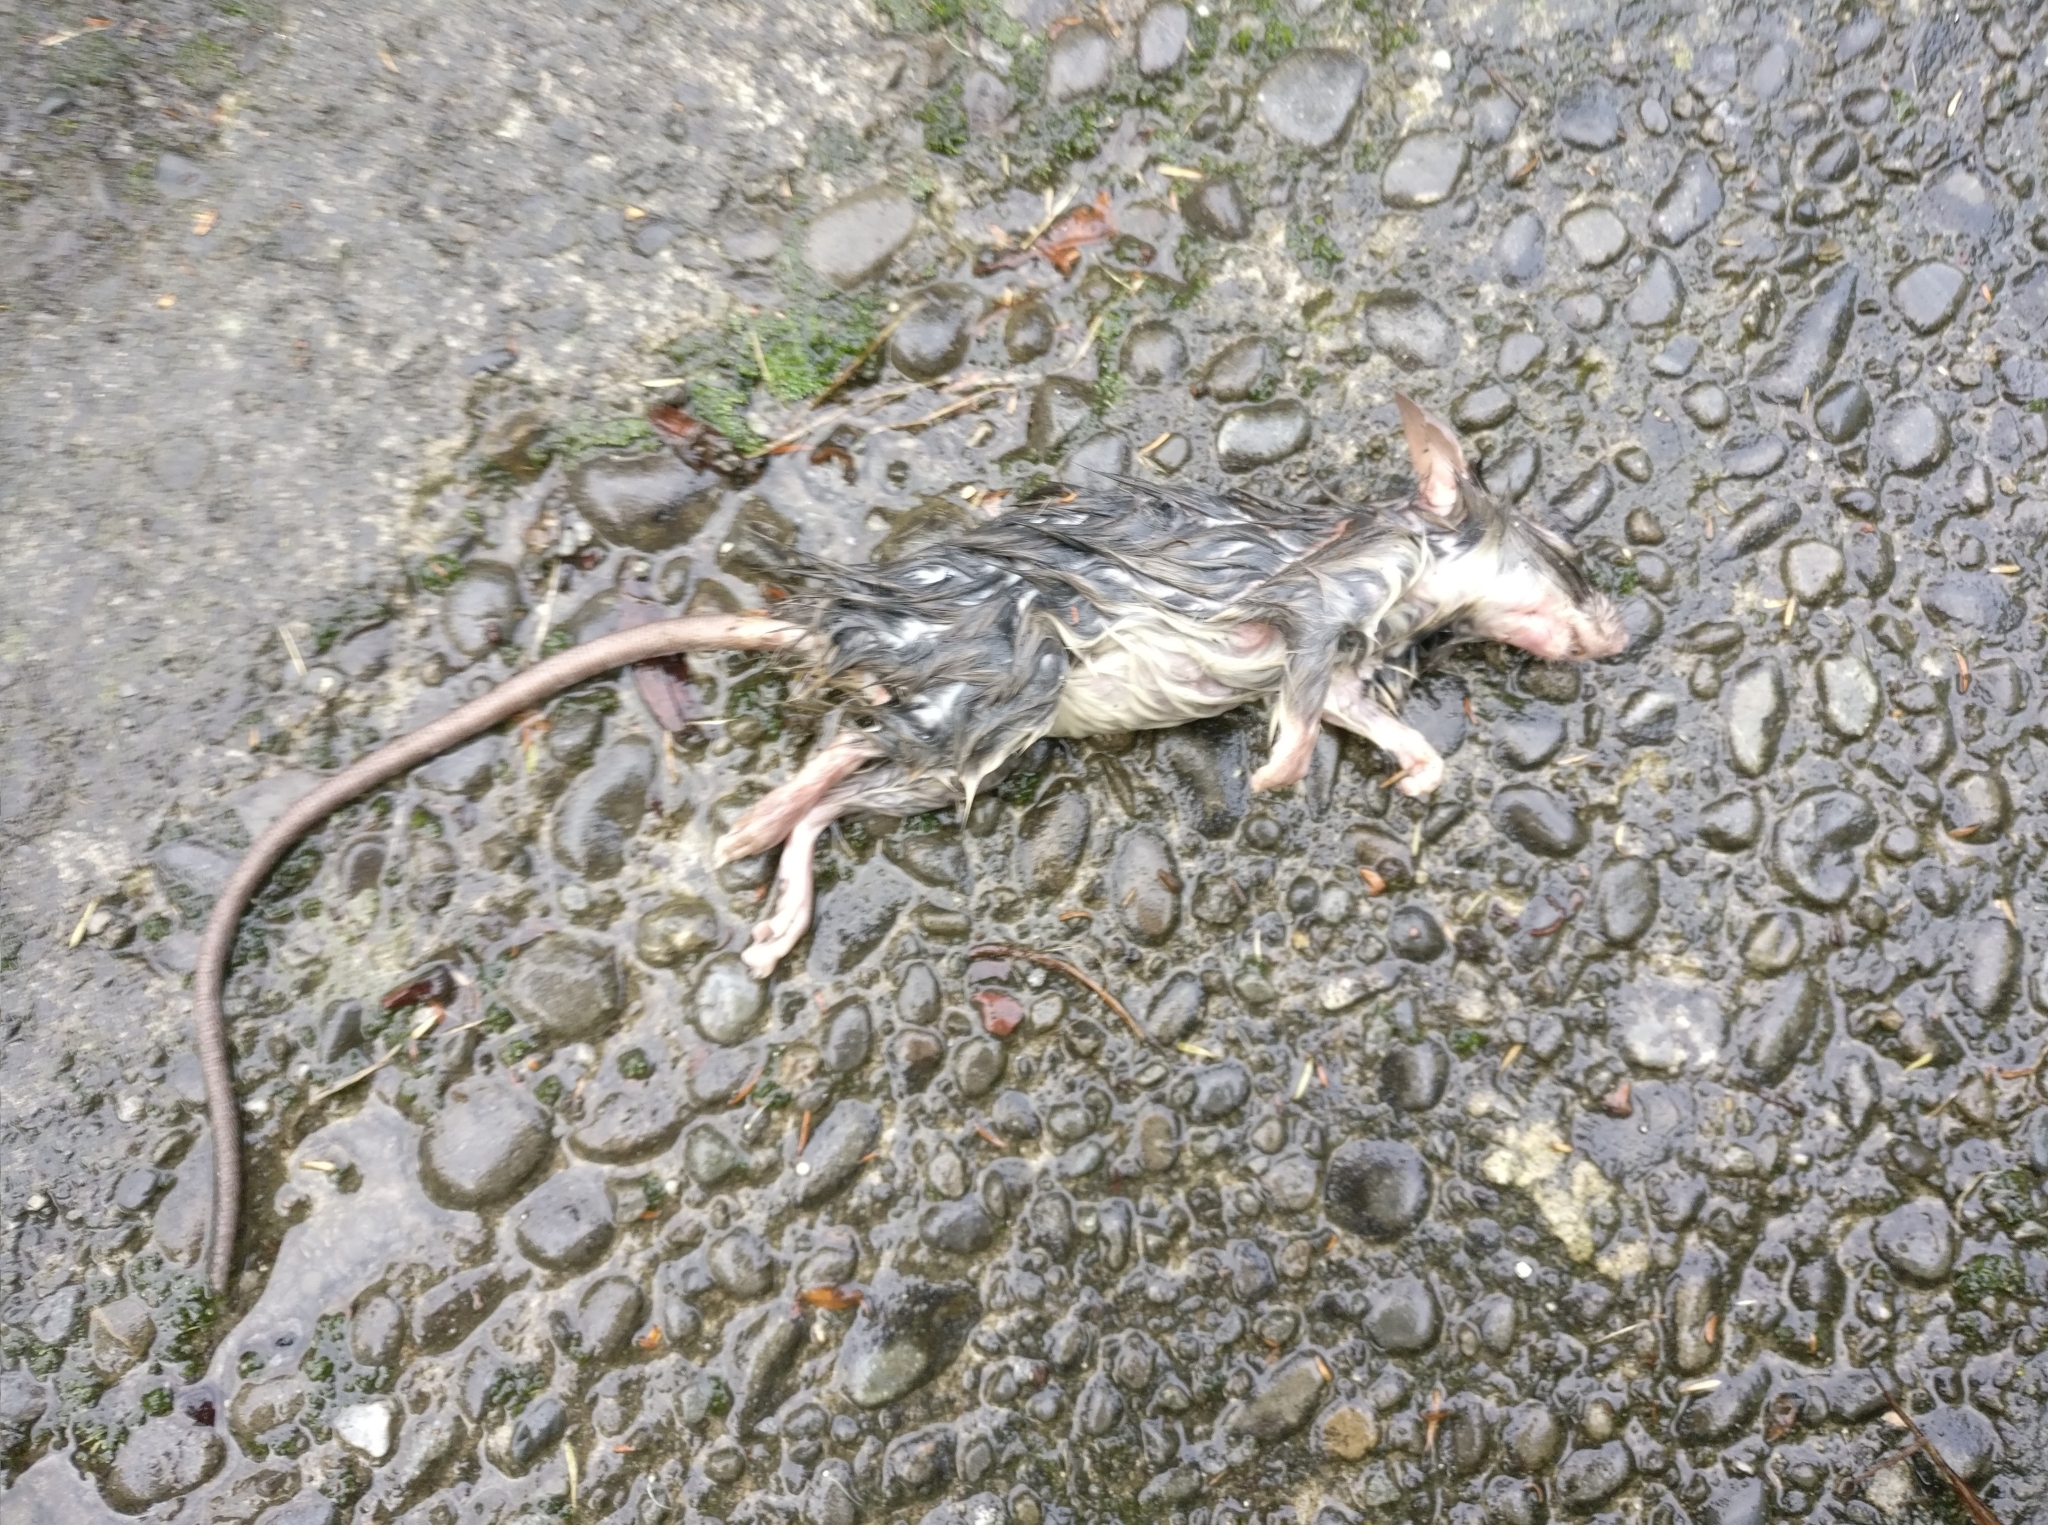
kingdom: Animalia
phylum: Chordata
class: Mammalia
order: Rodentia
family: Muridae
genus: Rattus
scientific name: Rattus rattus
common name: Black rat
